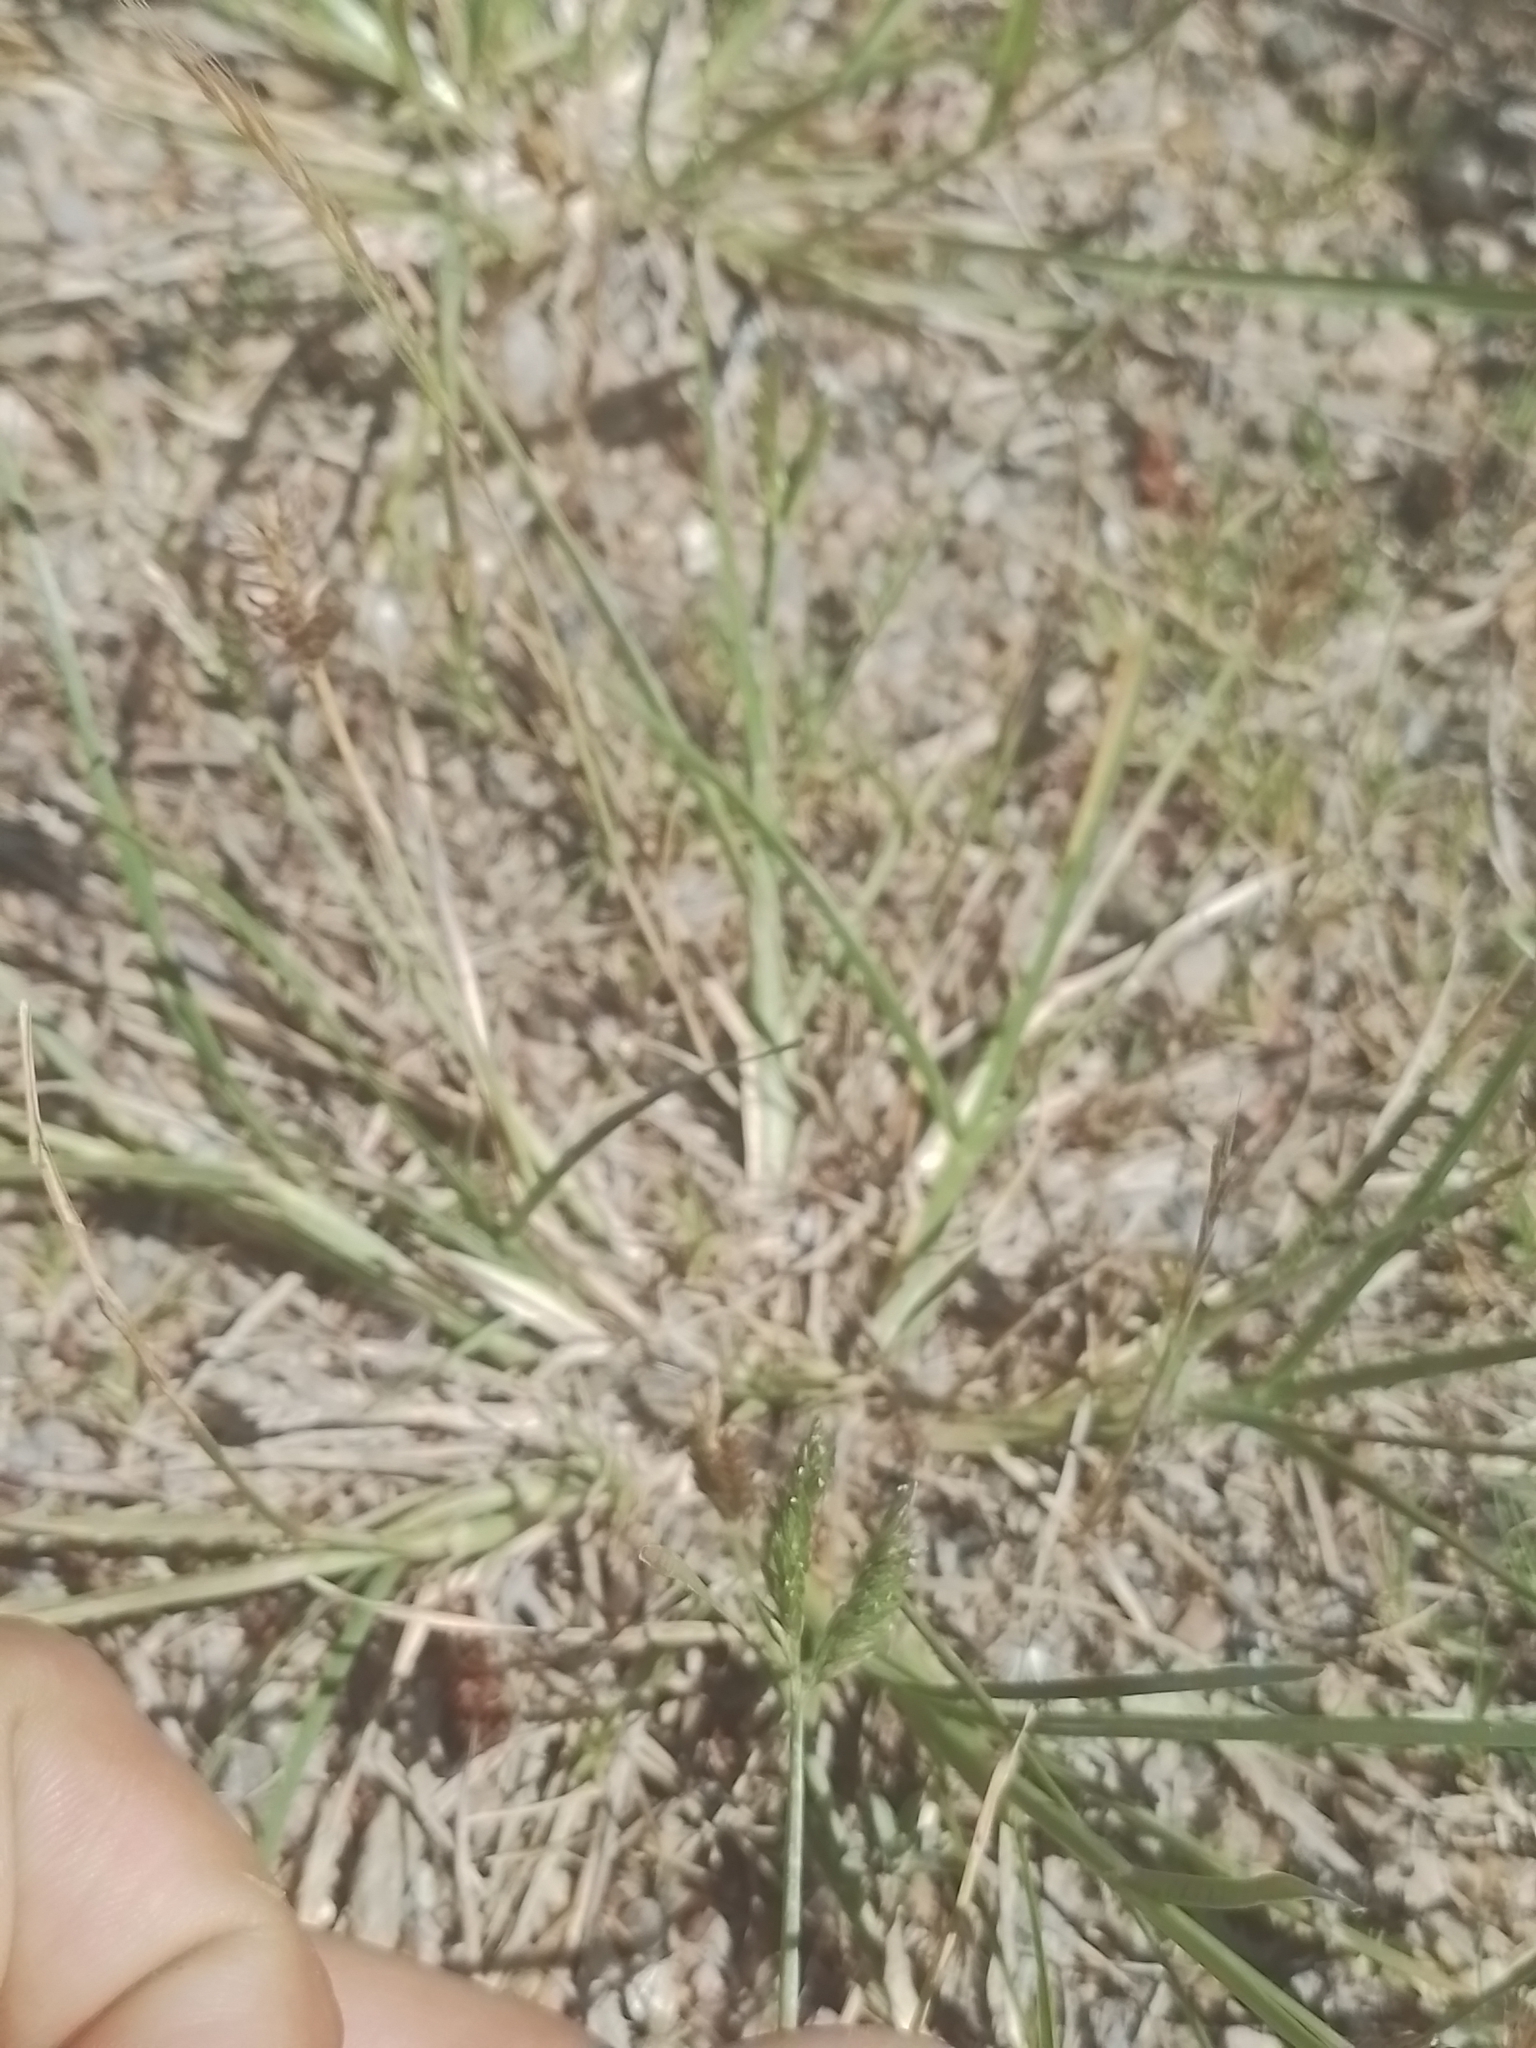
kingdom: Plantae
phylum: Tracheophyta
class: Liliopsida
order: Poales
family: Poaceae
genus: Eleusine
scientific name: Eleusine tristachya
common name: American yard-grass
